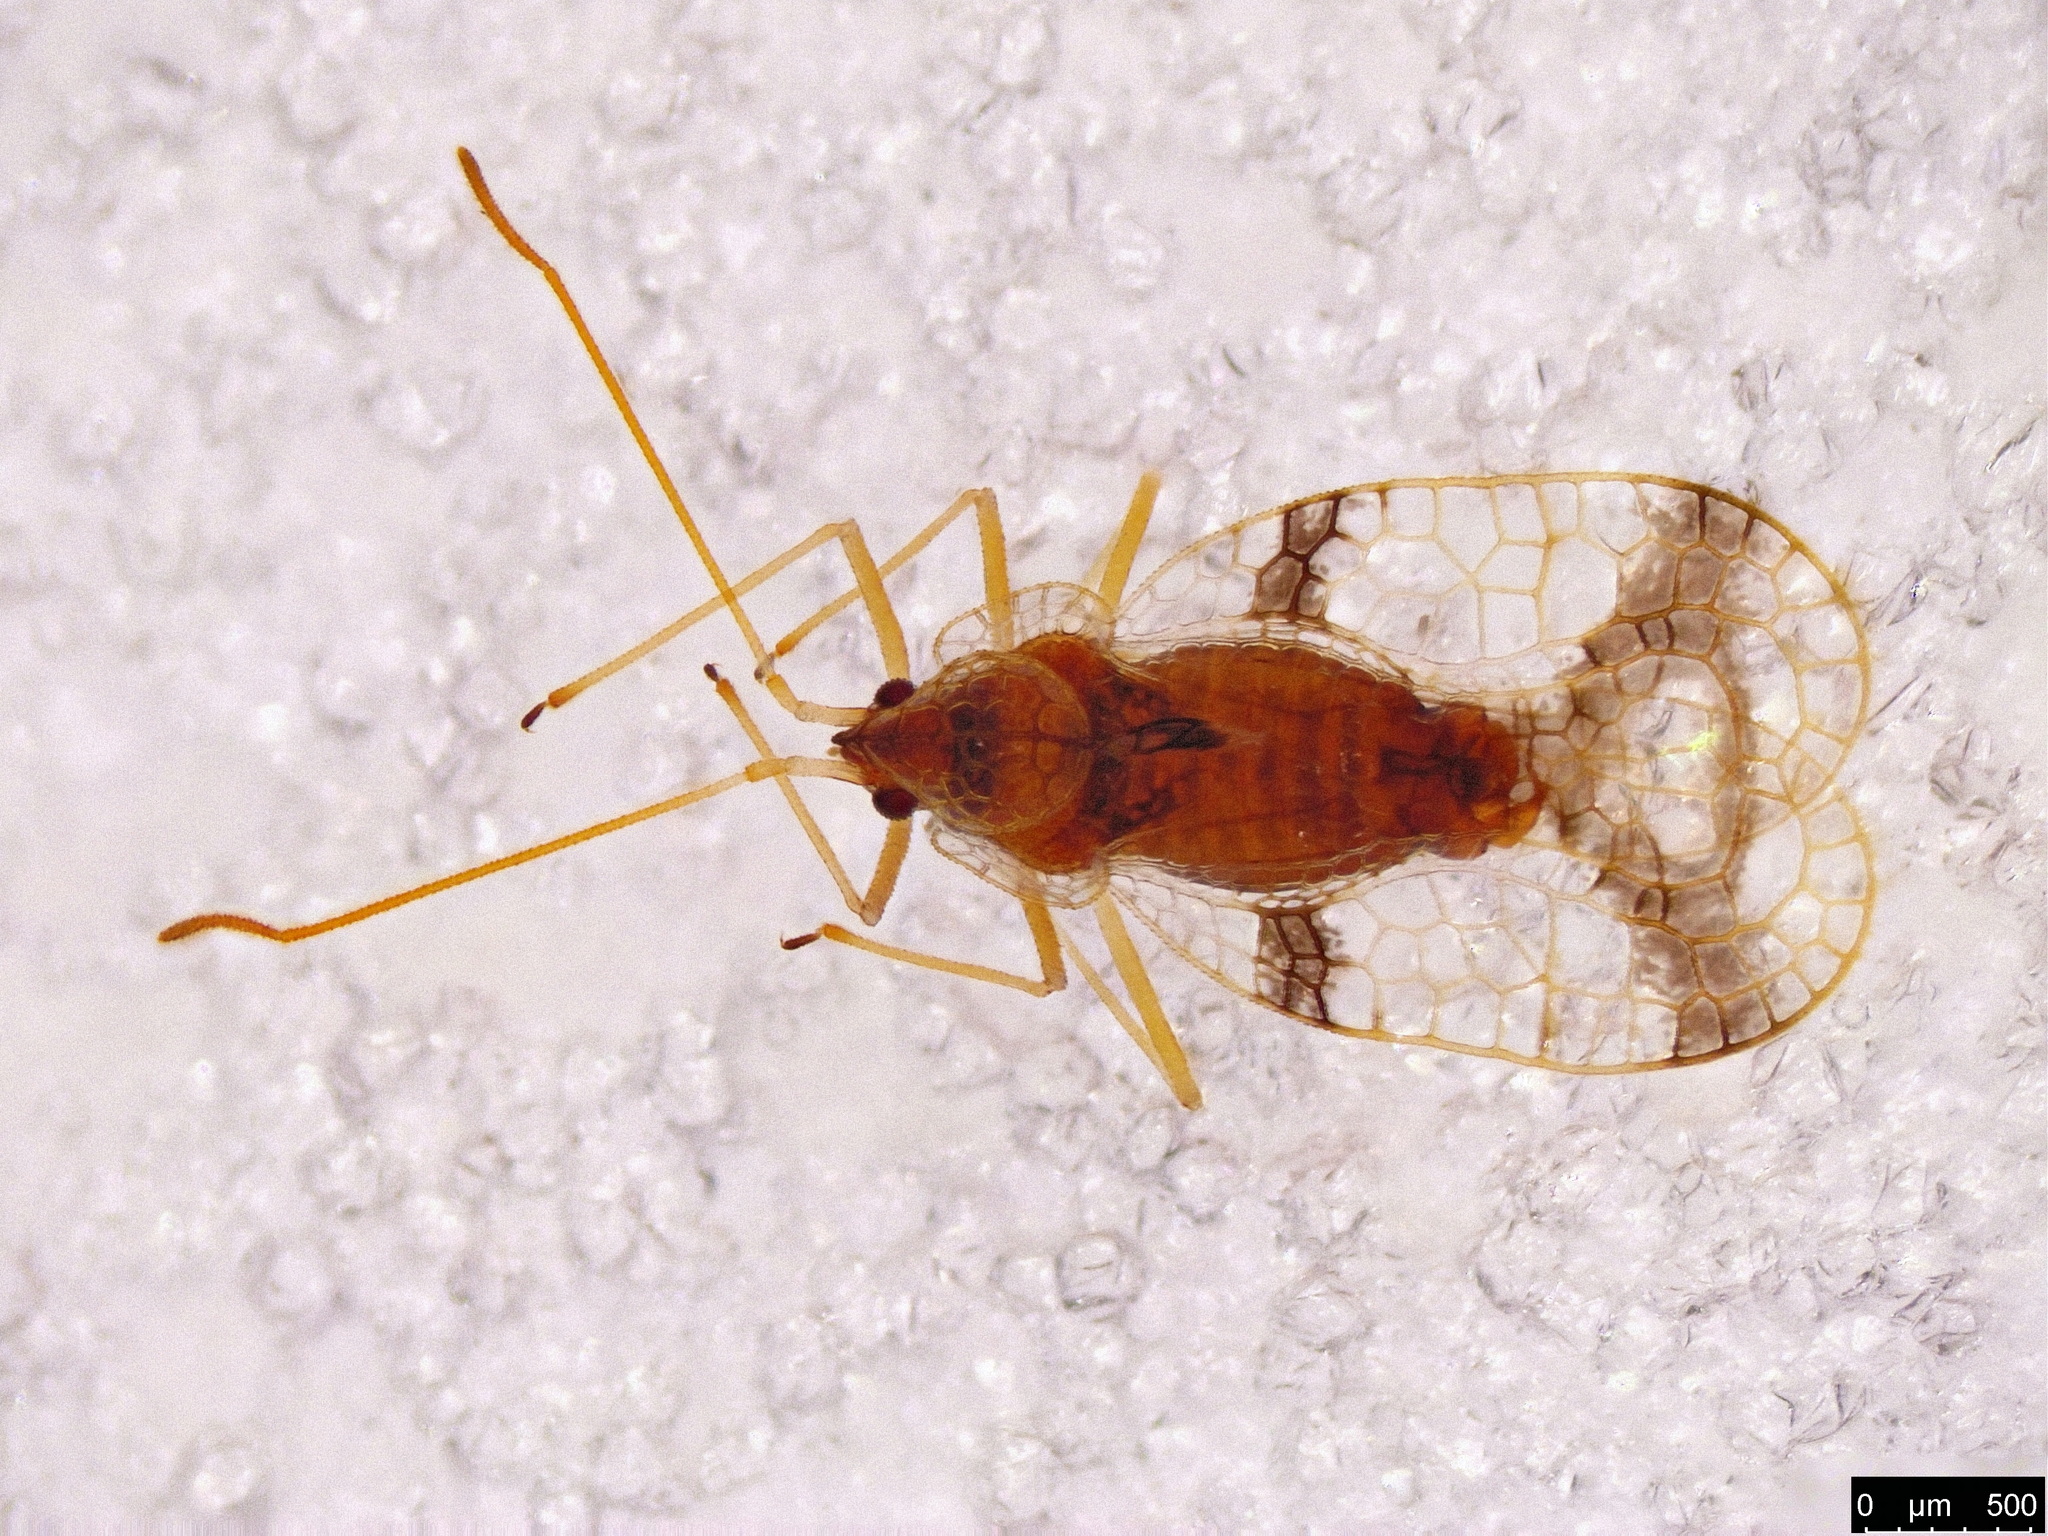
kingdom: Animalia
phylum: Arthropoda
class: Insecta
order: Hemiptera
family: Tingidae
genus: Stephanitis
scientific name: Stephanitis pyrioides
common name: Azalea lace bug
